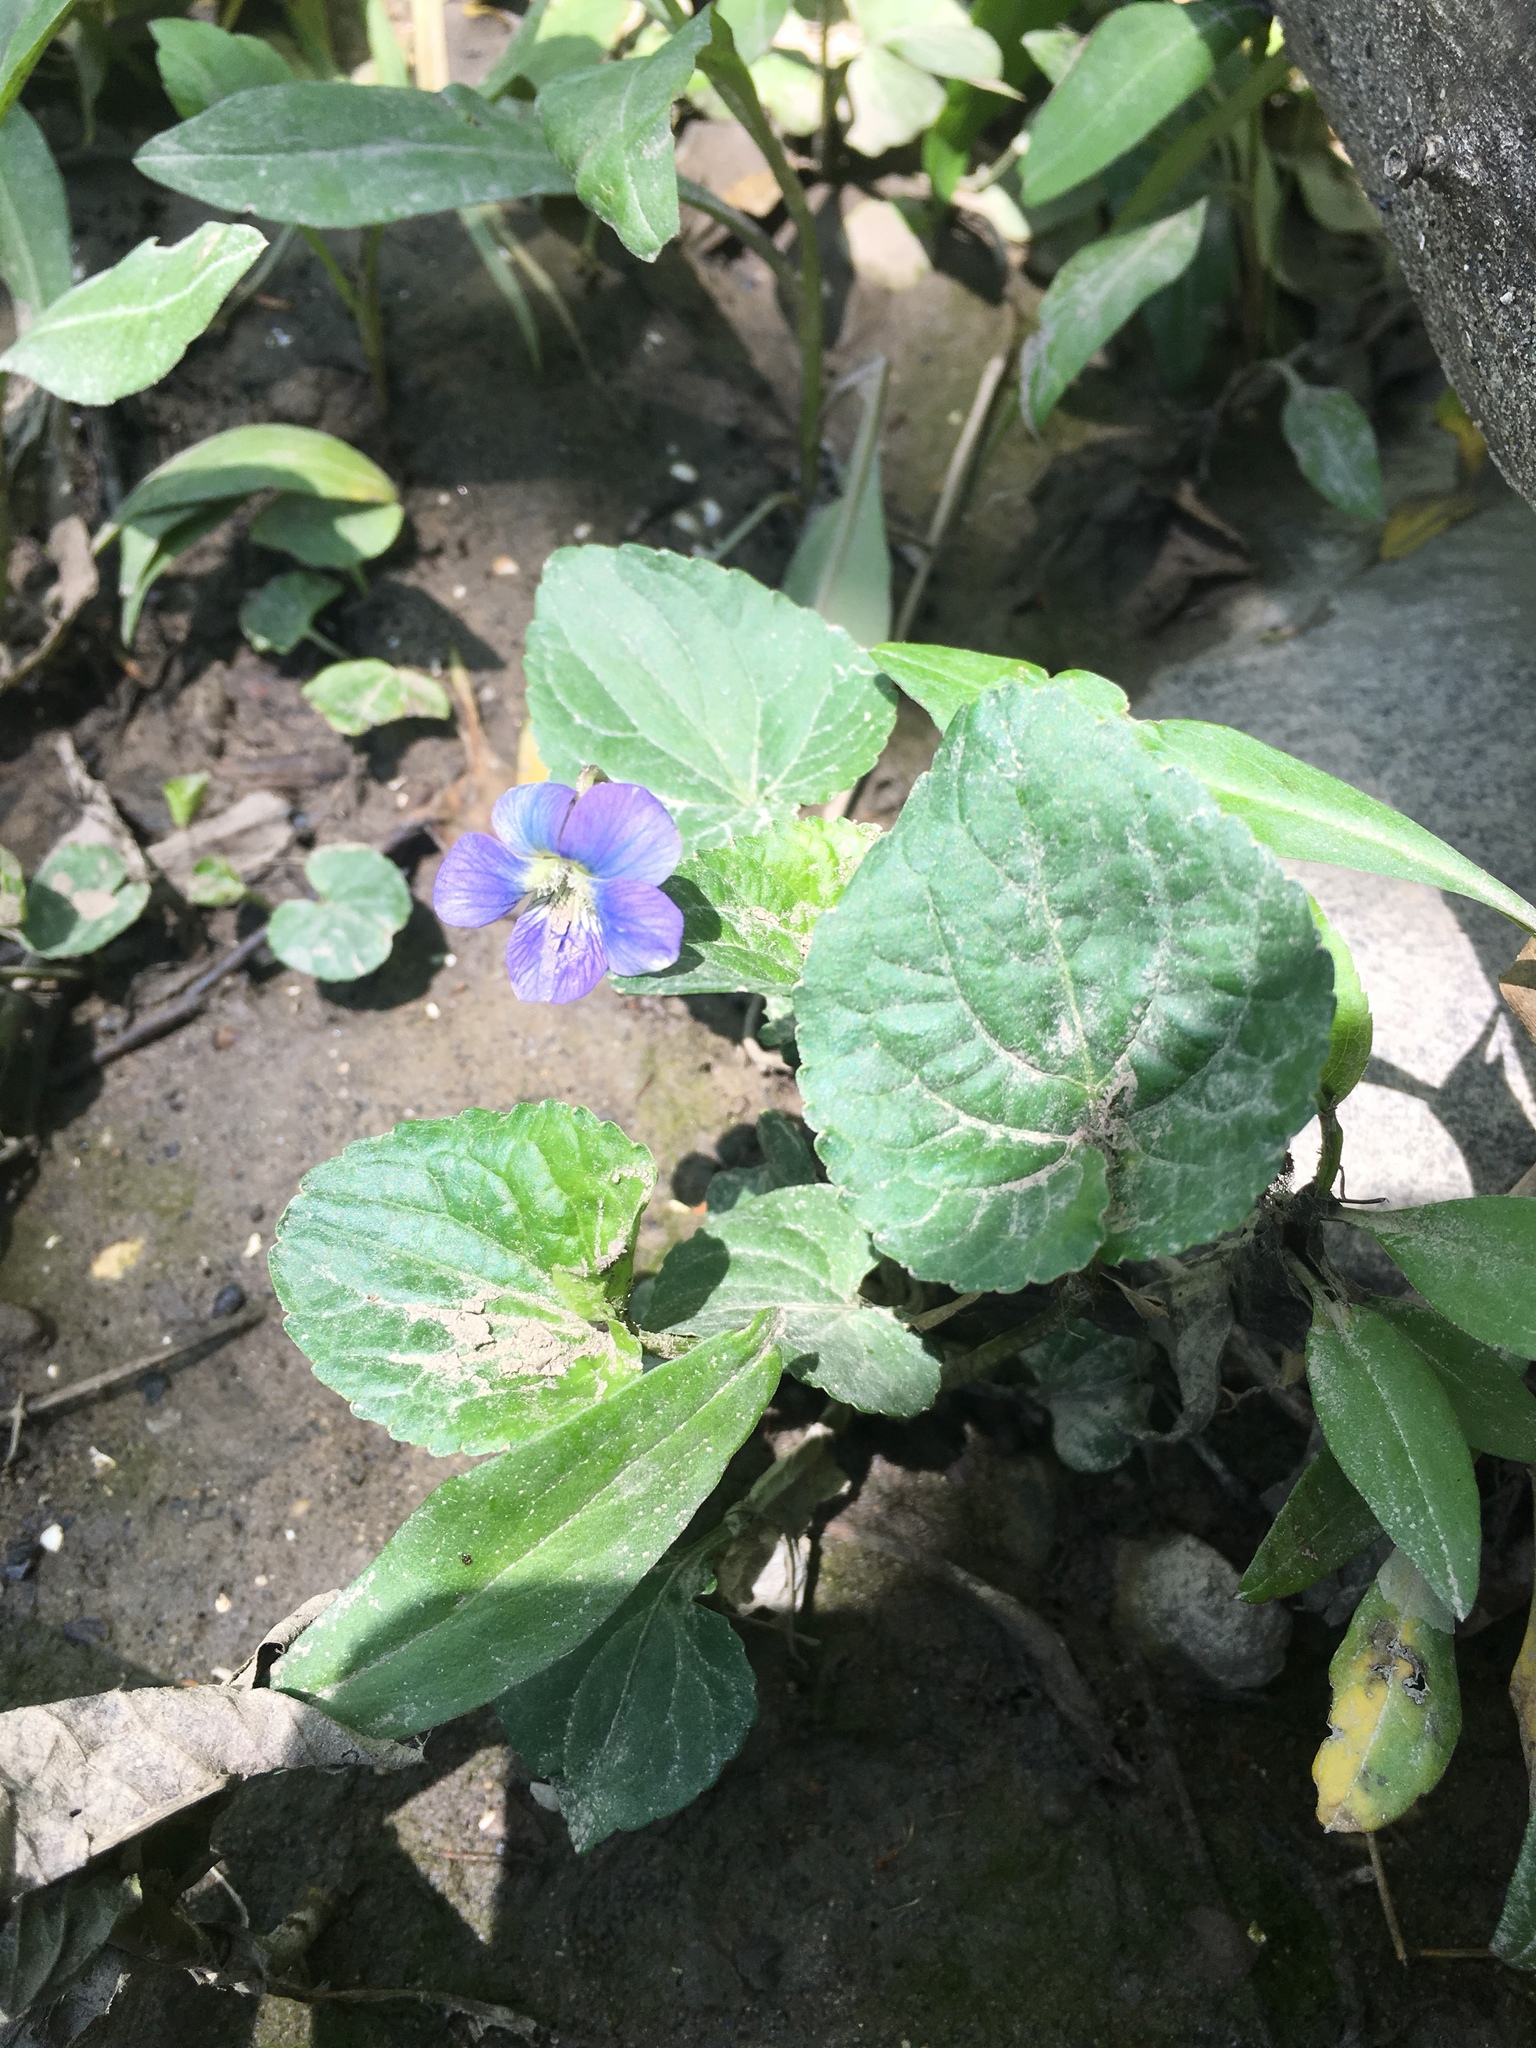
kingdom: Plantae
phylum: Tracheophyta
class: Magnoliopsida
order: Malpighiales
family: Violaceae
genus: Viola
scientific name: Viola sororia
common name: Dooryard violet
